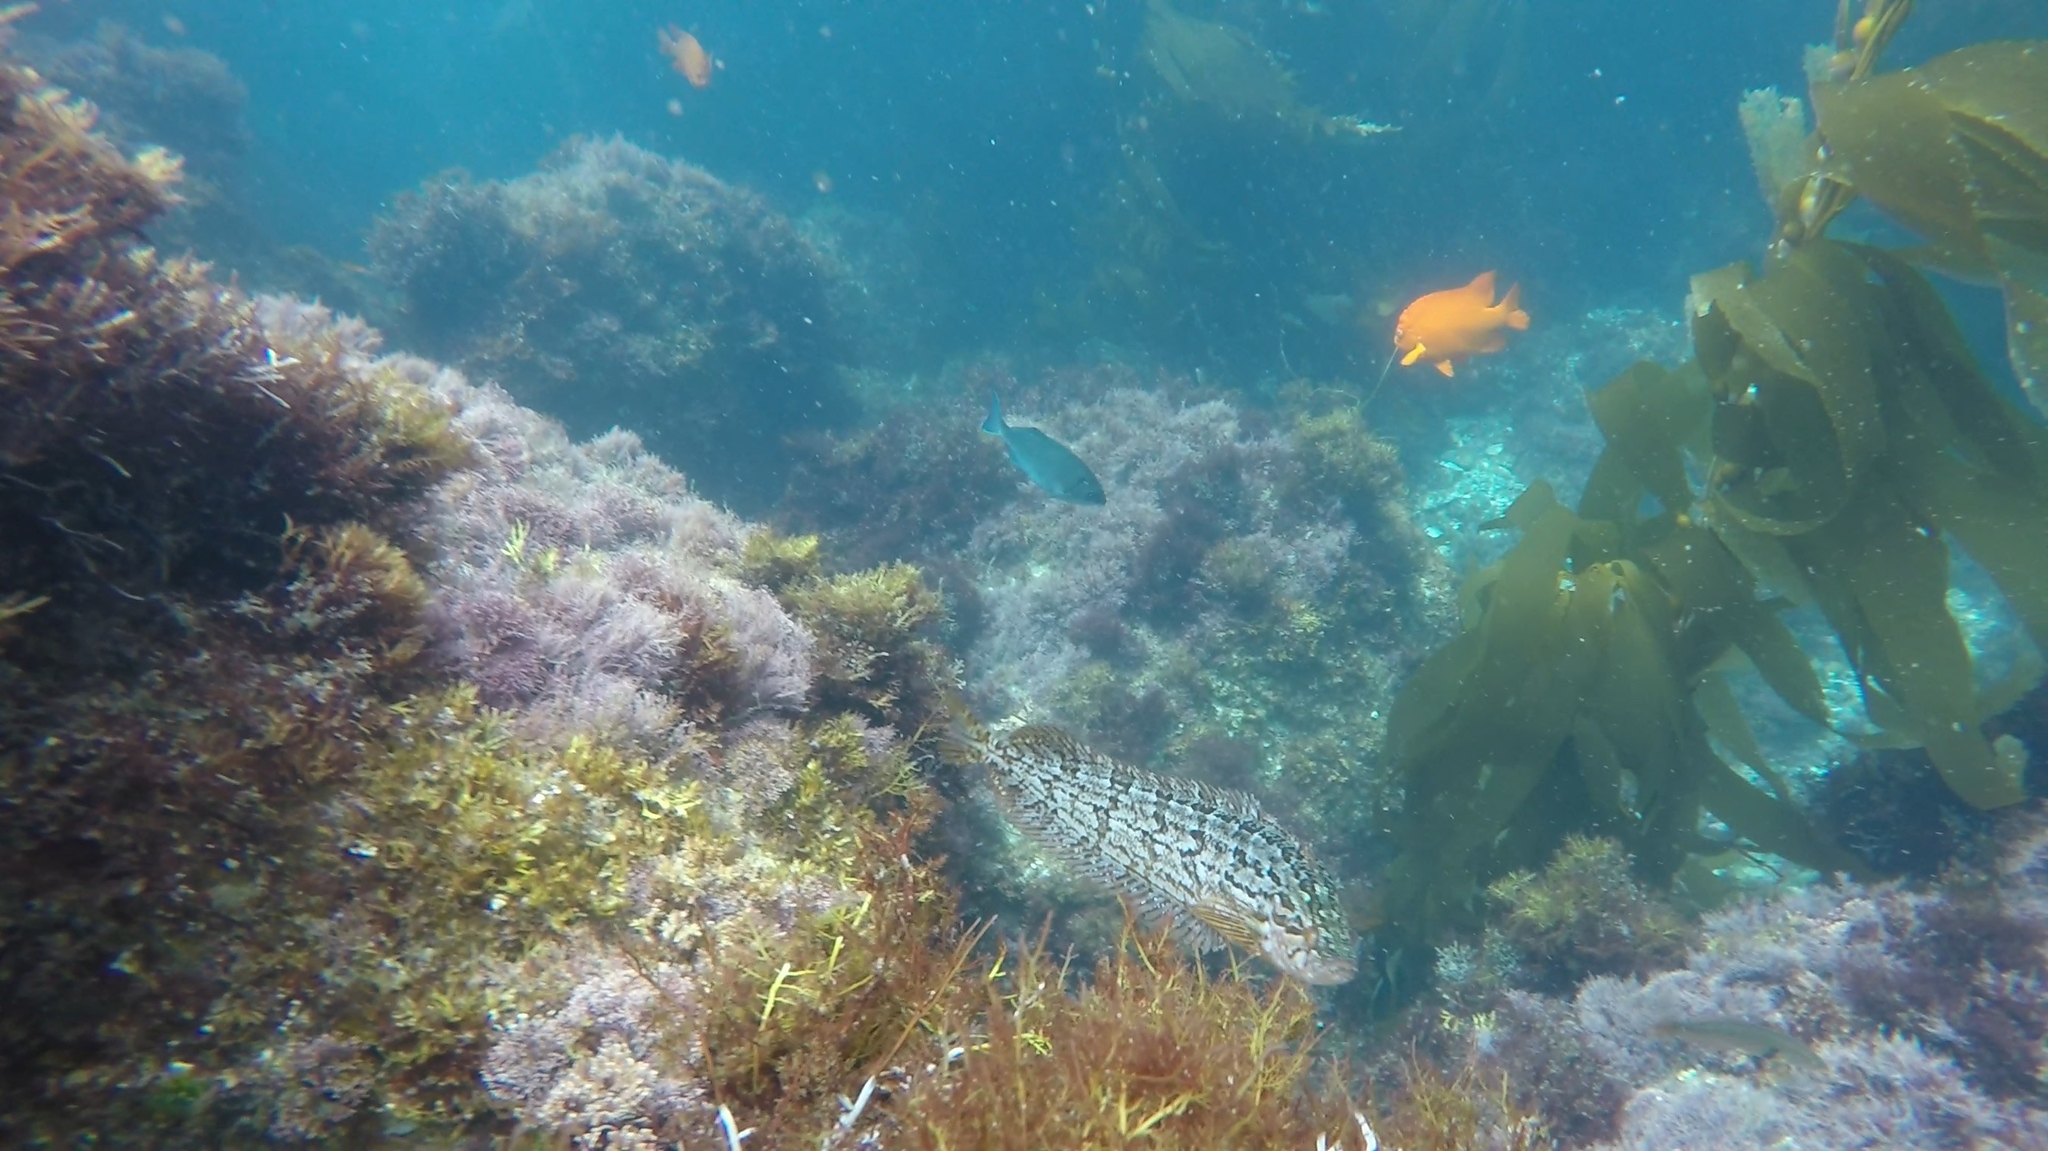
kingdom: Animalia
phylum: Chordata
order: Perciformes
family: Clinidae
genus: Heterostichus
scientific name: Heterostichus rostratus
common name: Giant kelpfish
